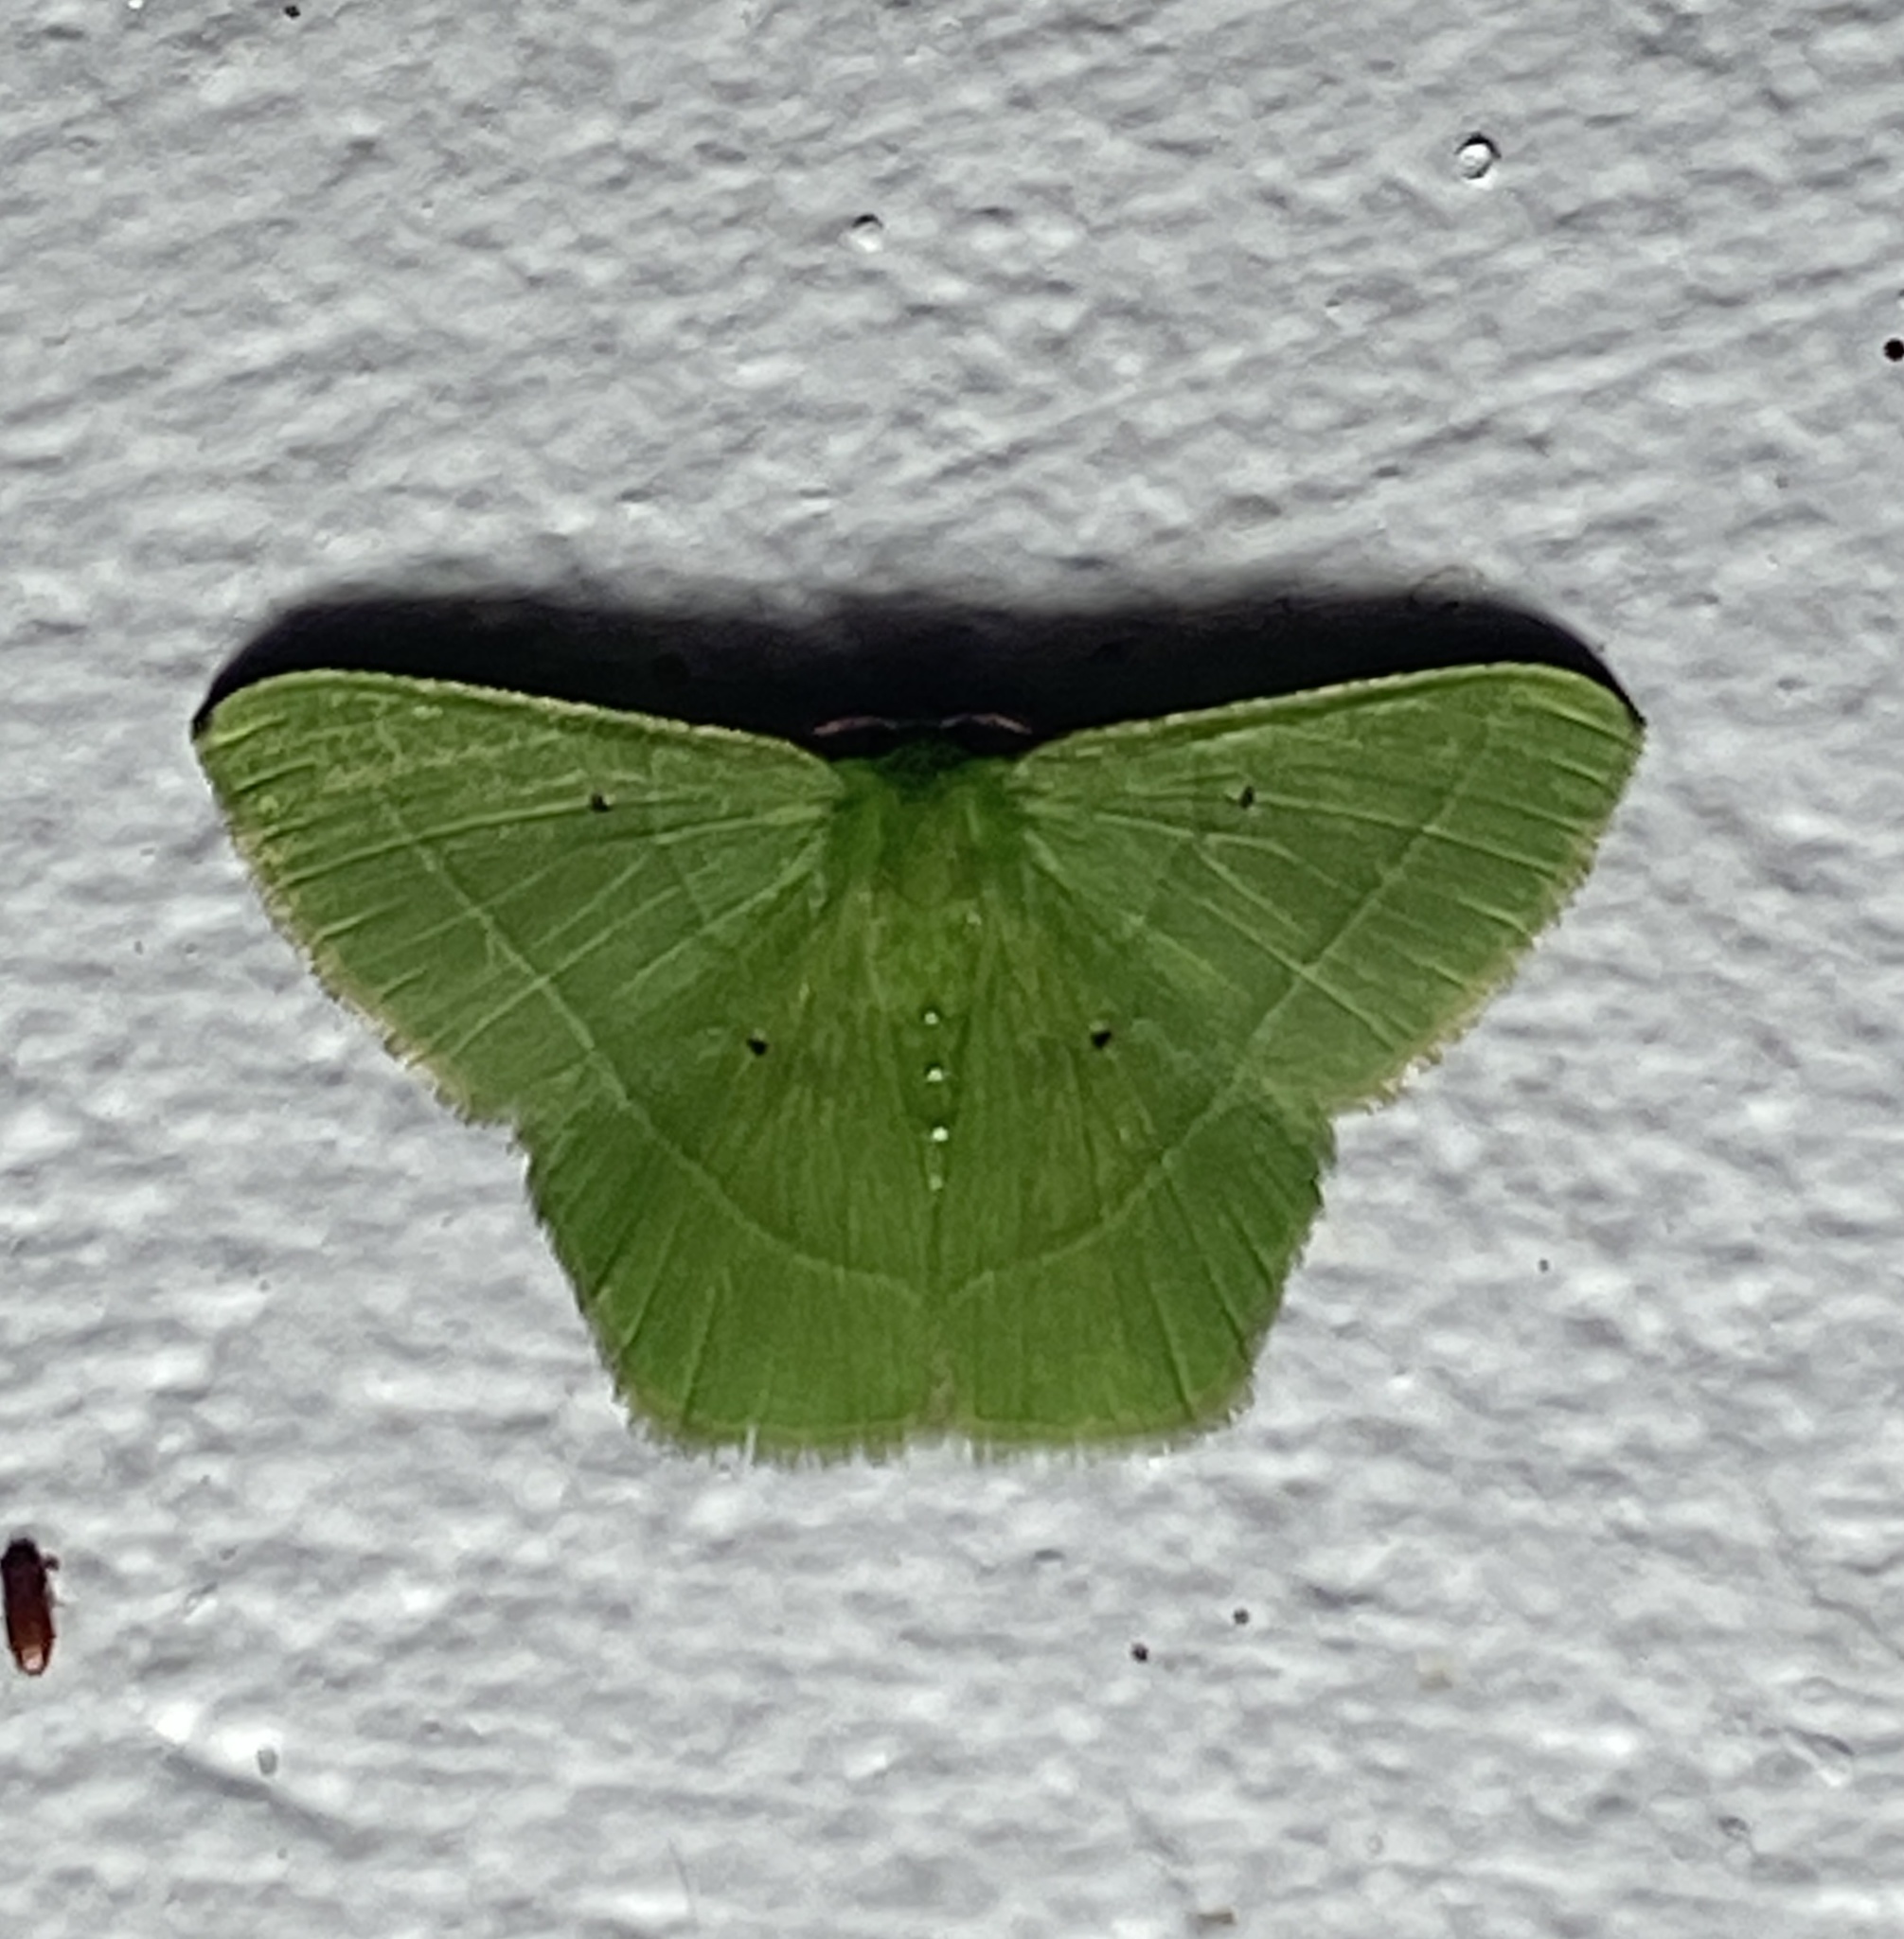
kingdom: Animalia
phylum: Arthropoda
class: Insecta
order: Lepidoptera
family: Geometridae
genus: Phrudocentra
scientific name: Phrudocentra pupillata
